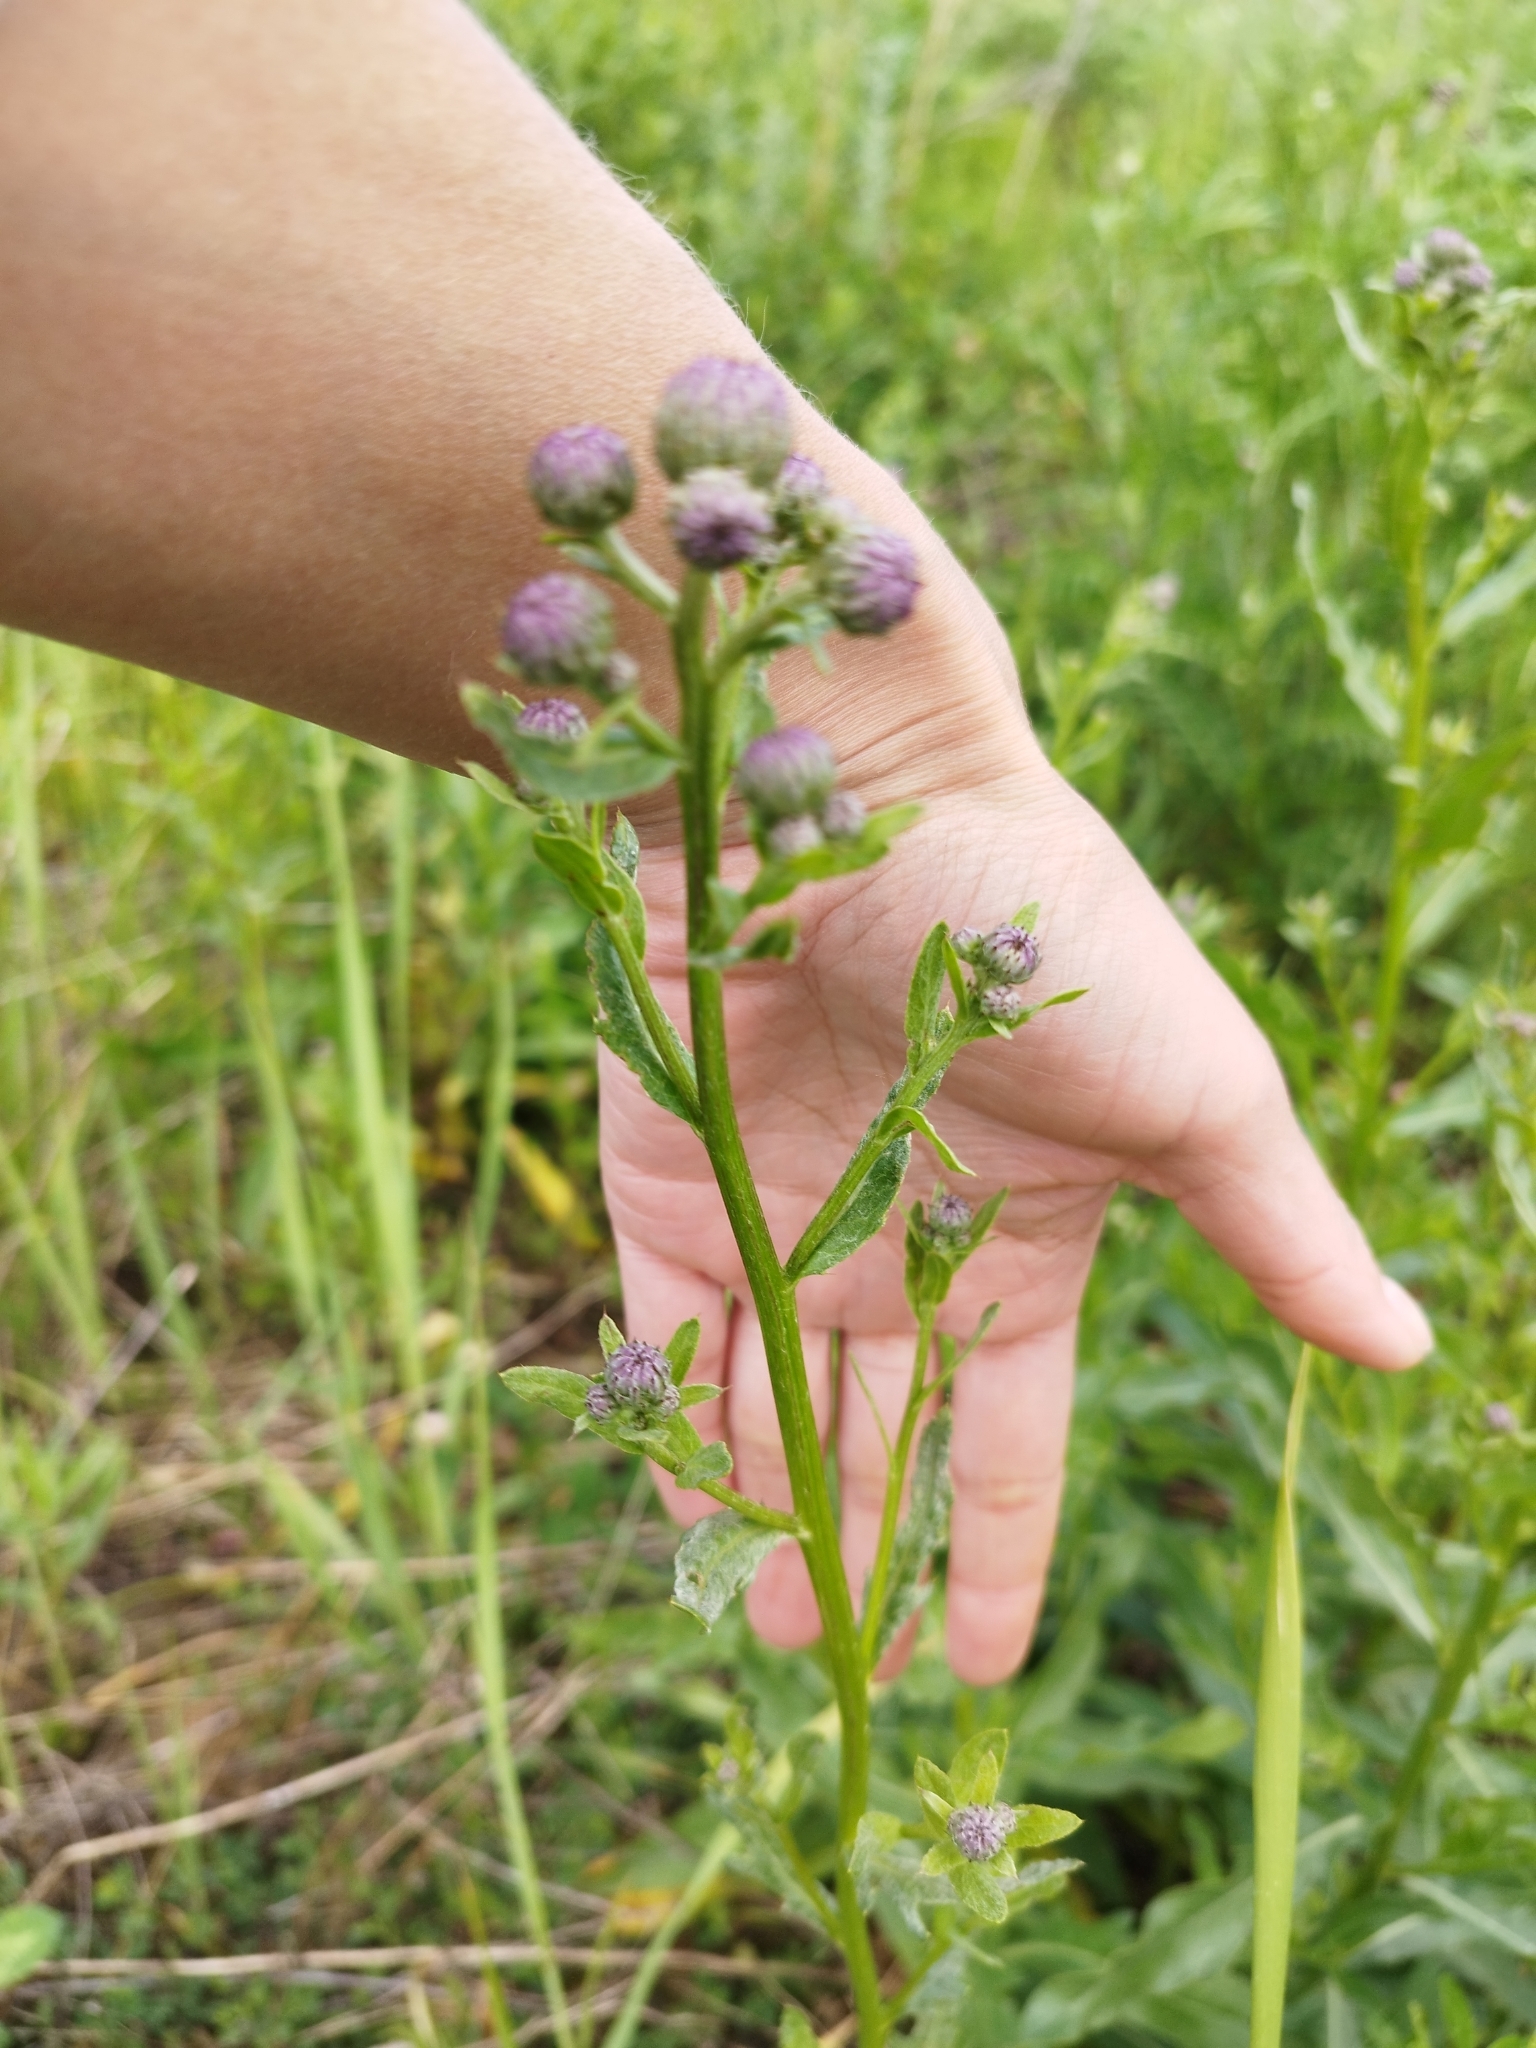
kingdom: Plantae
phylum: Tracheophyta
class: Magnoliopsida
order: Asterales
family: Asteraceae
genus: Cirsium
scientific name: Cirsium arvense
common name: Creeping thistle
